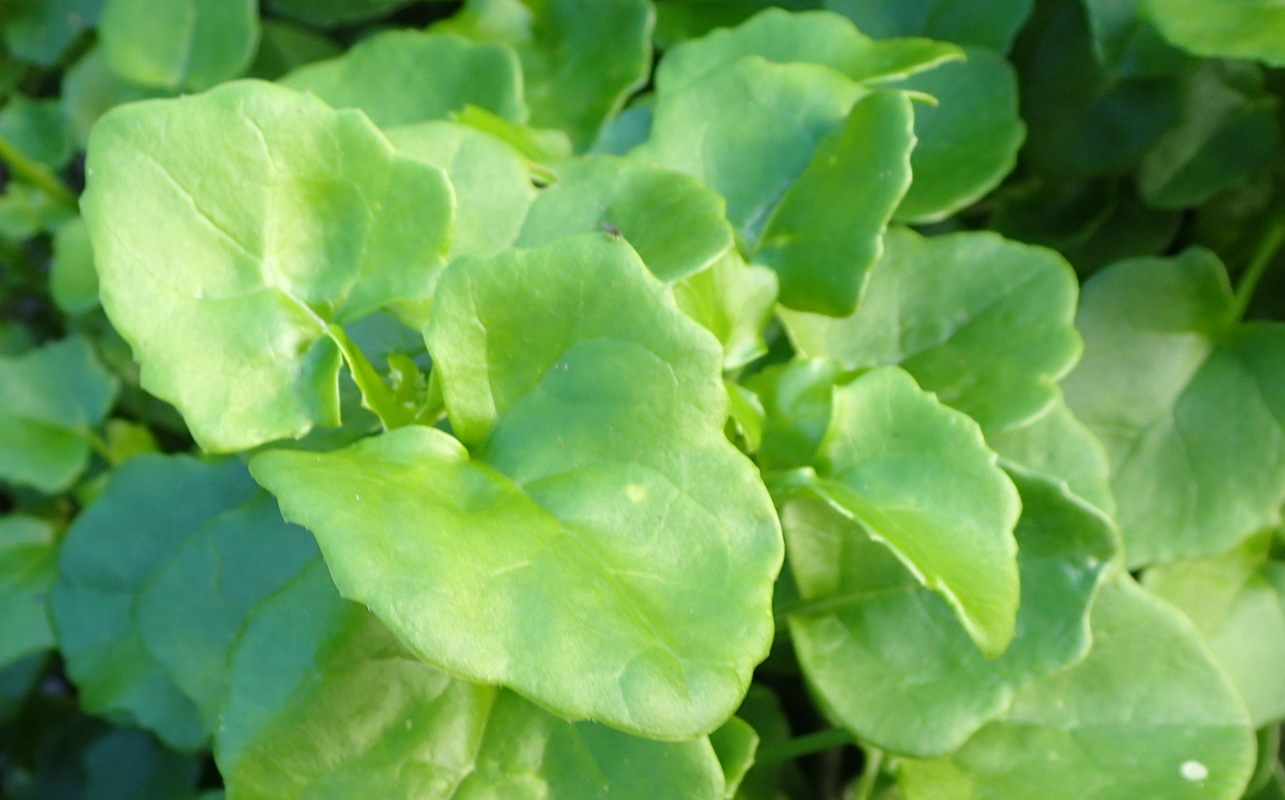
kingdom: Plantae
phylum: Tracheophyta
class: Magnoliopsida
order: Asterales
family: Asteraceae
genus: Senecio
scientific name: Senecio angulatus
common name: Climbing groundsel
